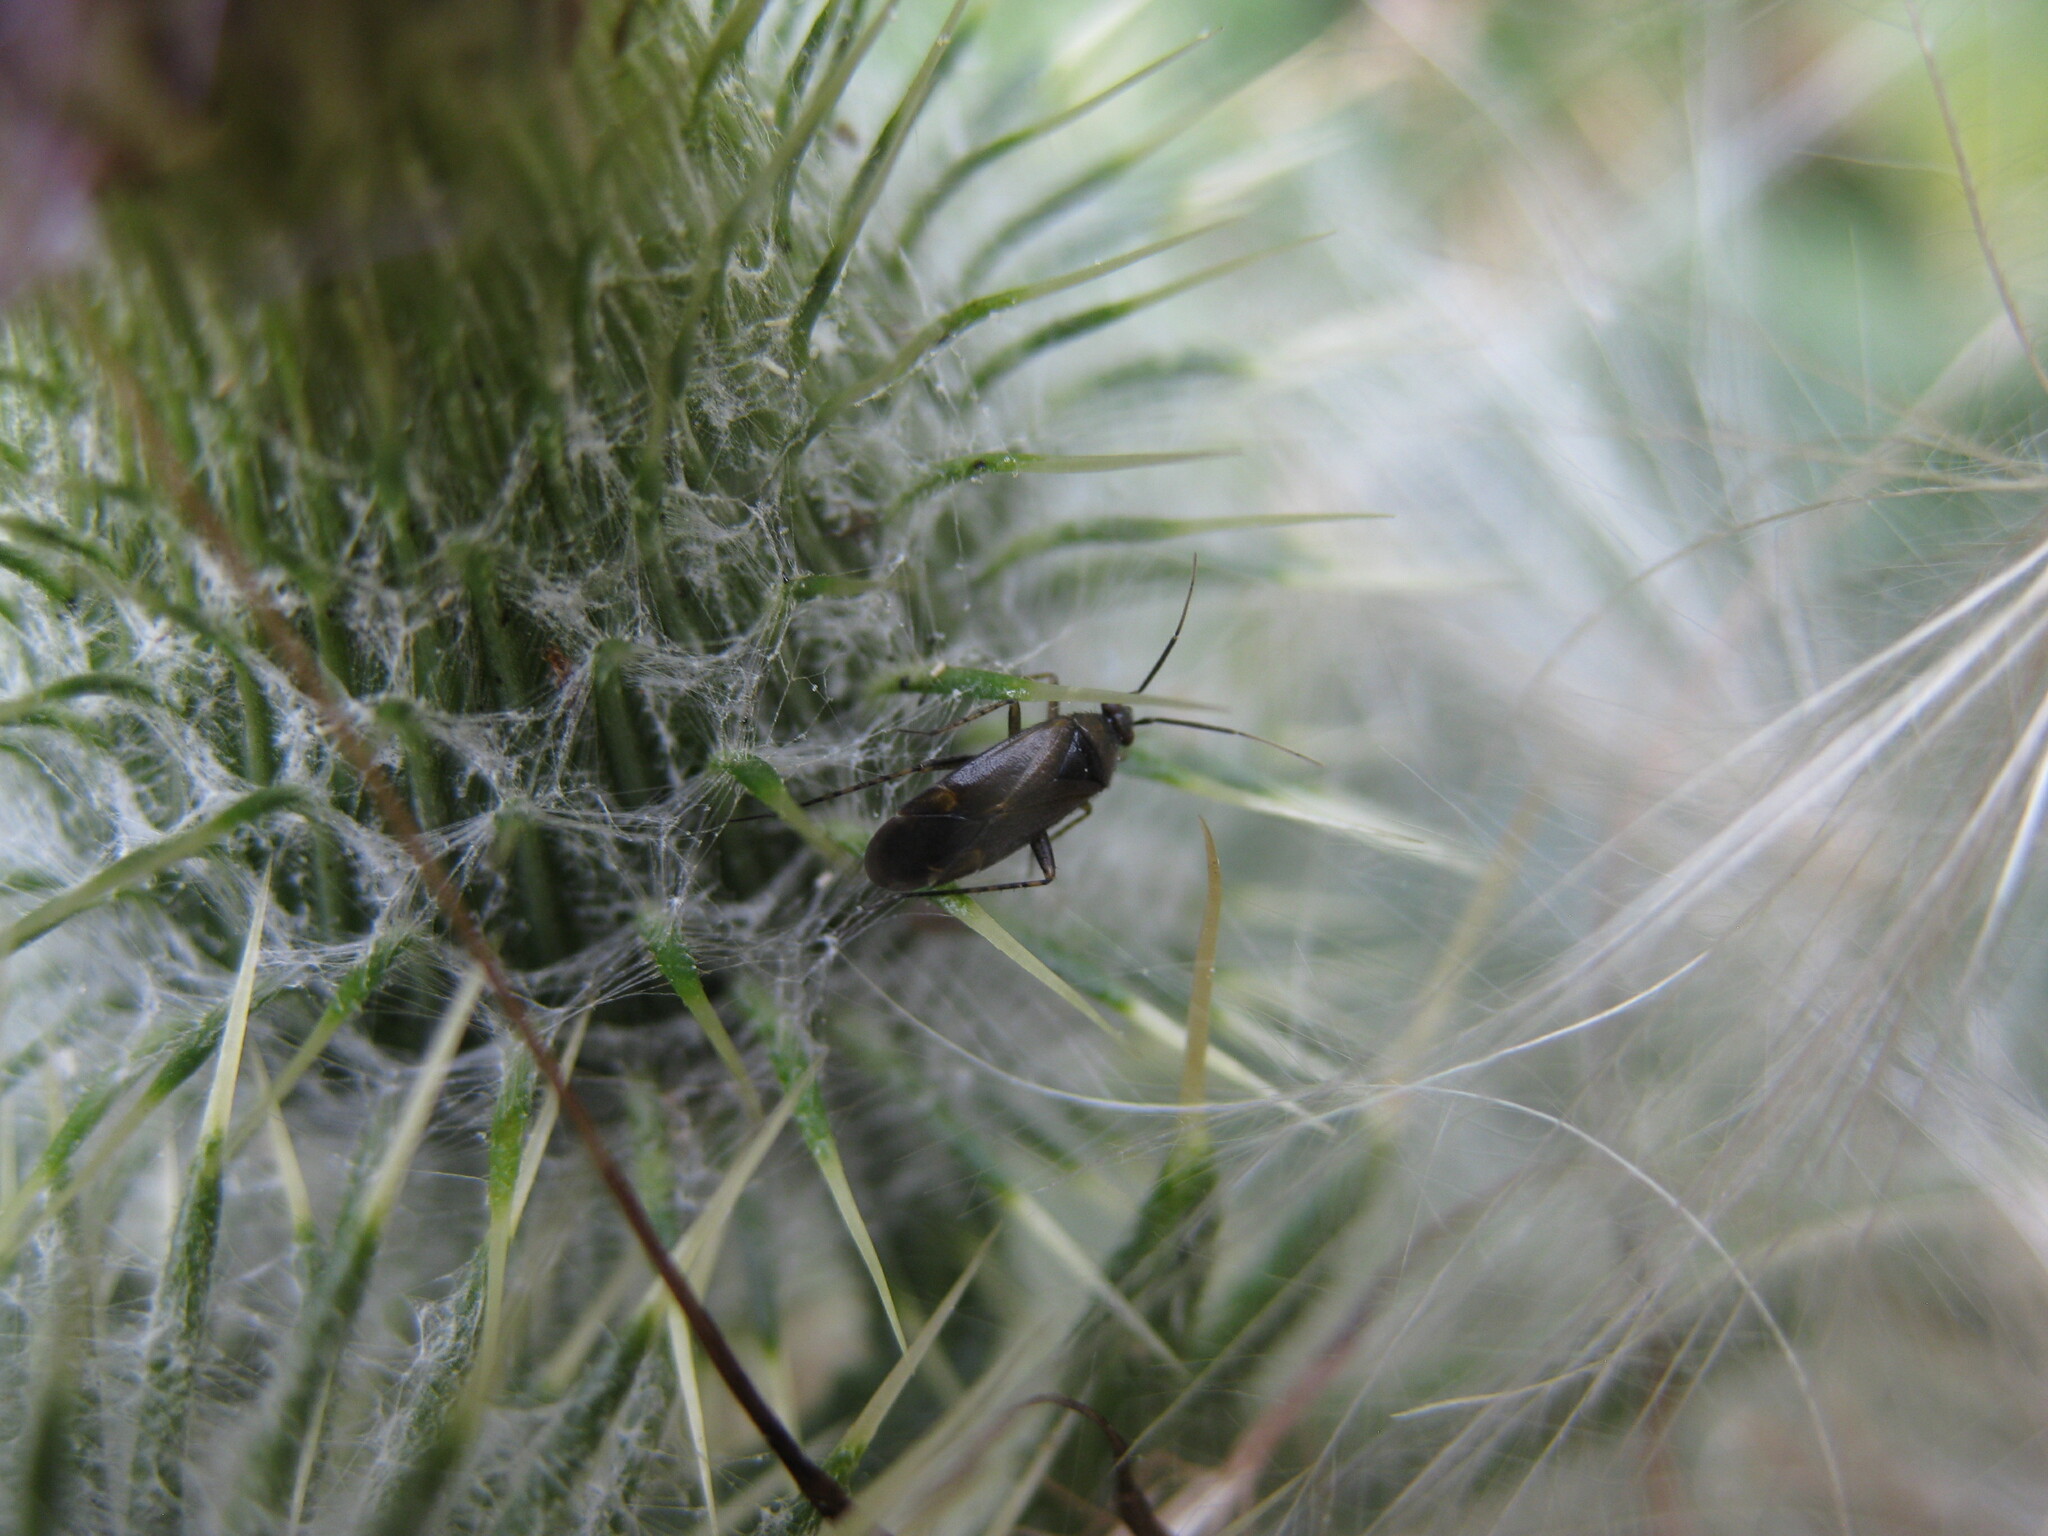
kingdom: Animalia
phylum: Arthropoda
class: Insecta
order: Hemiptera
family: Miridae
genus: Plagiognathus
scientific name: Plagiognathus arbustorum
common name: Plant bug
